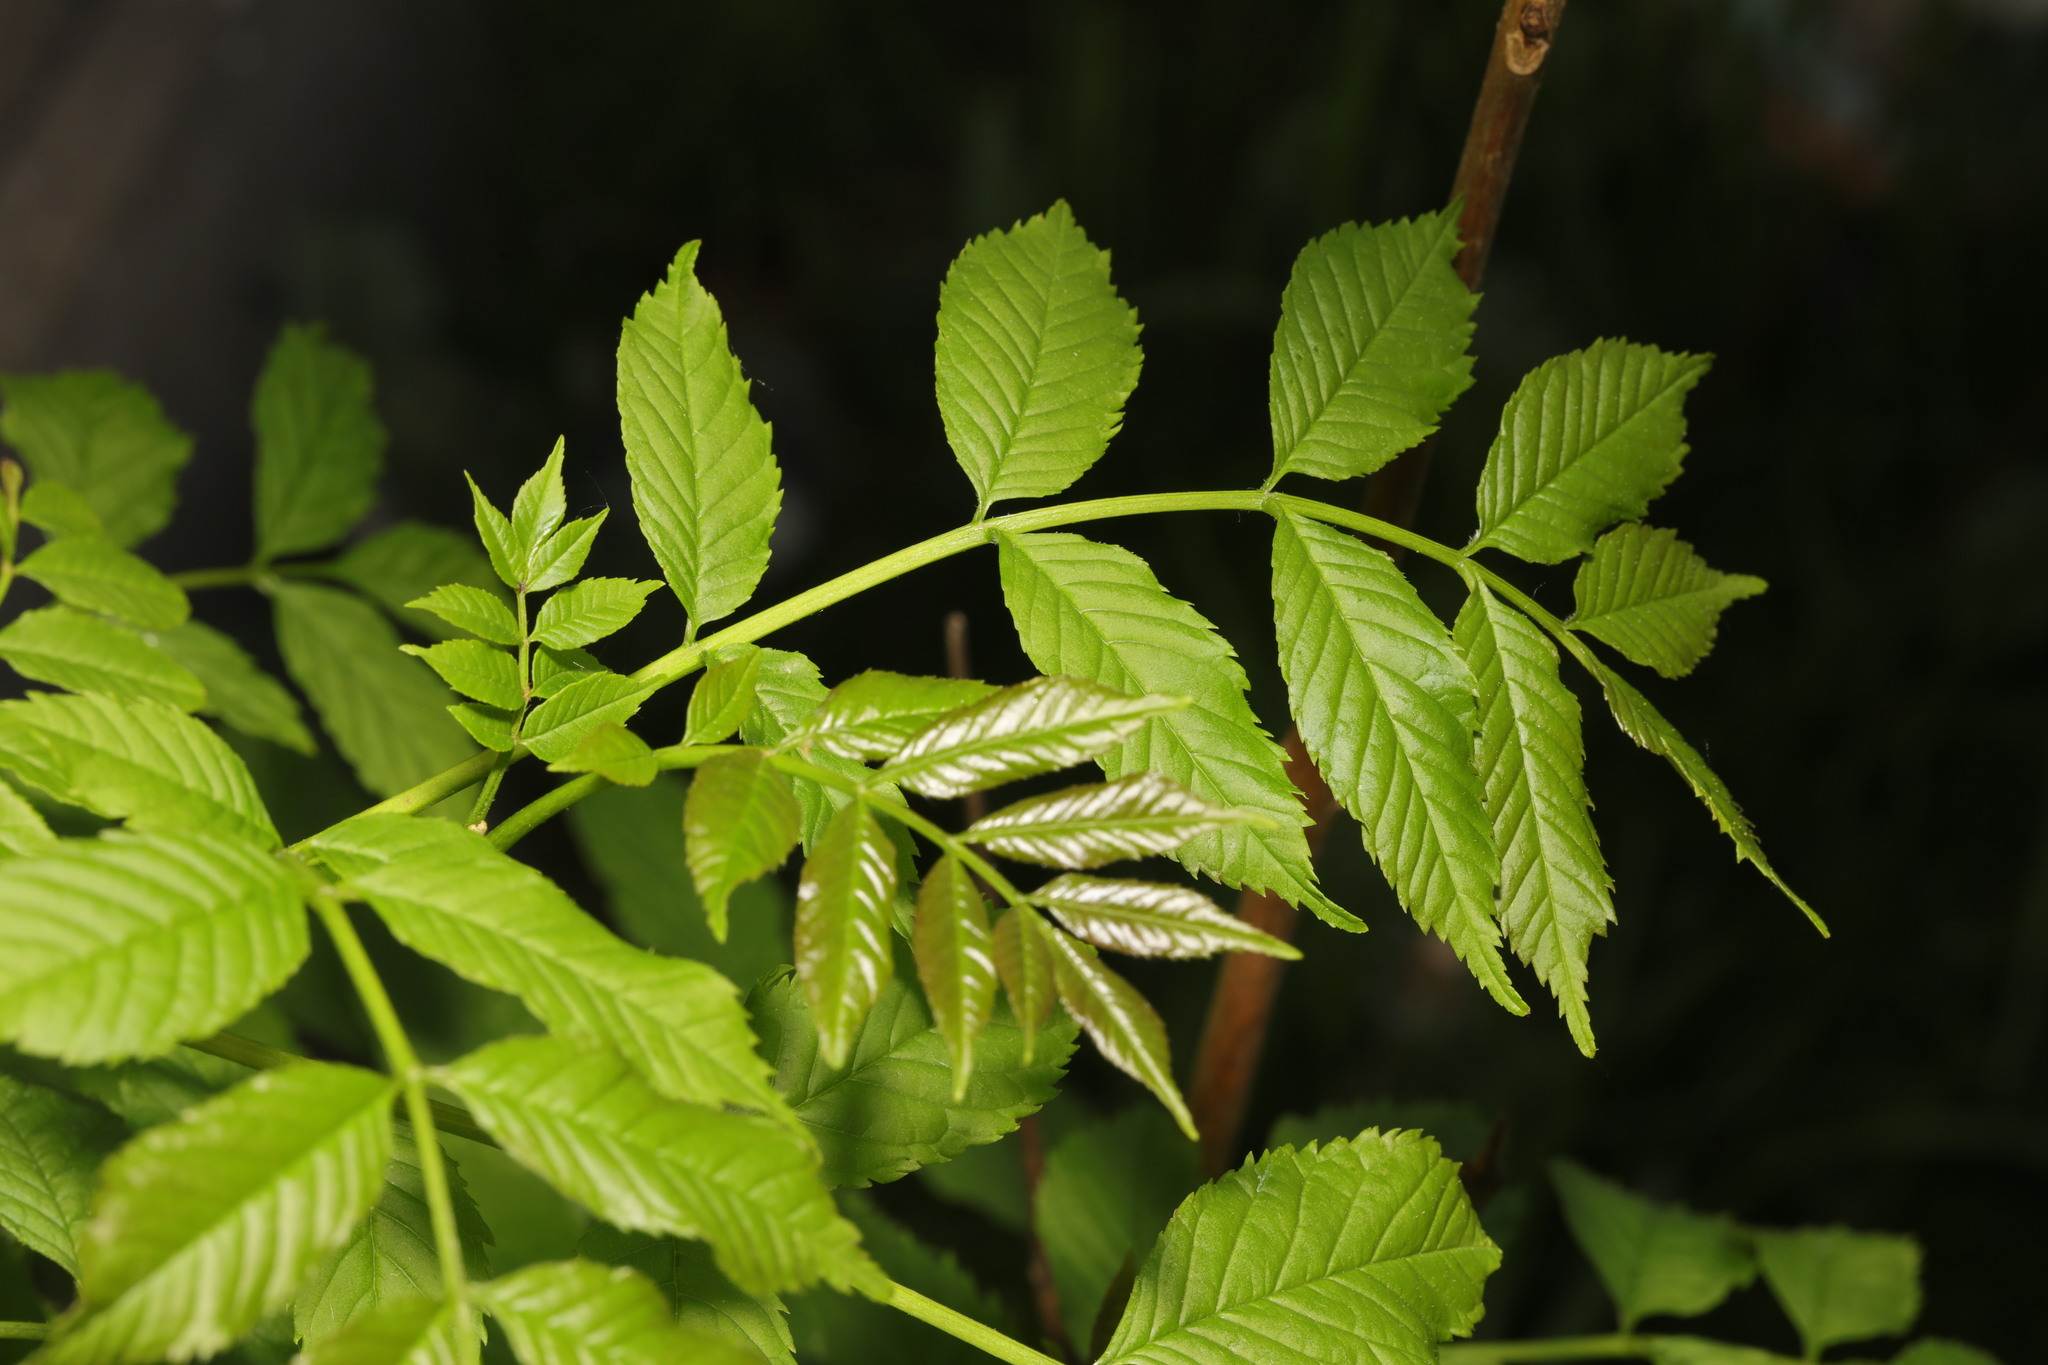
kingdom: Plantae
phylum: Tracheophyta
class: Magnoliopsida
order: Lamiales
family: Oleaceae
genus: Fraxinus
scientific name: Fraxinus excelsior
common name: European ash
